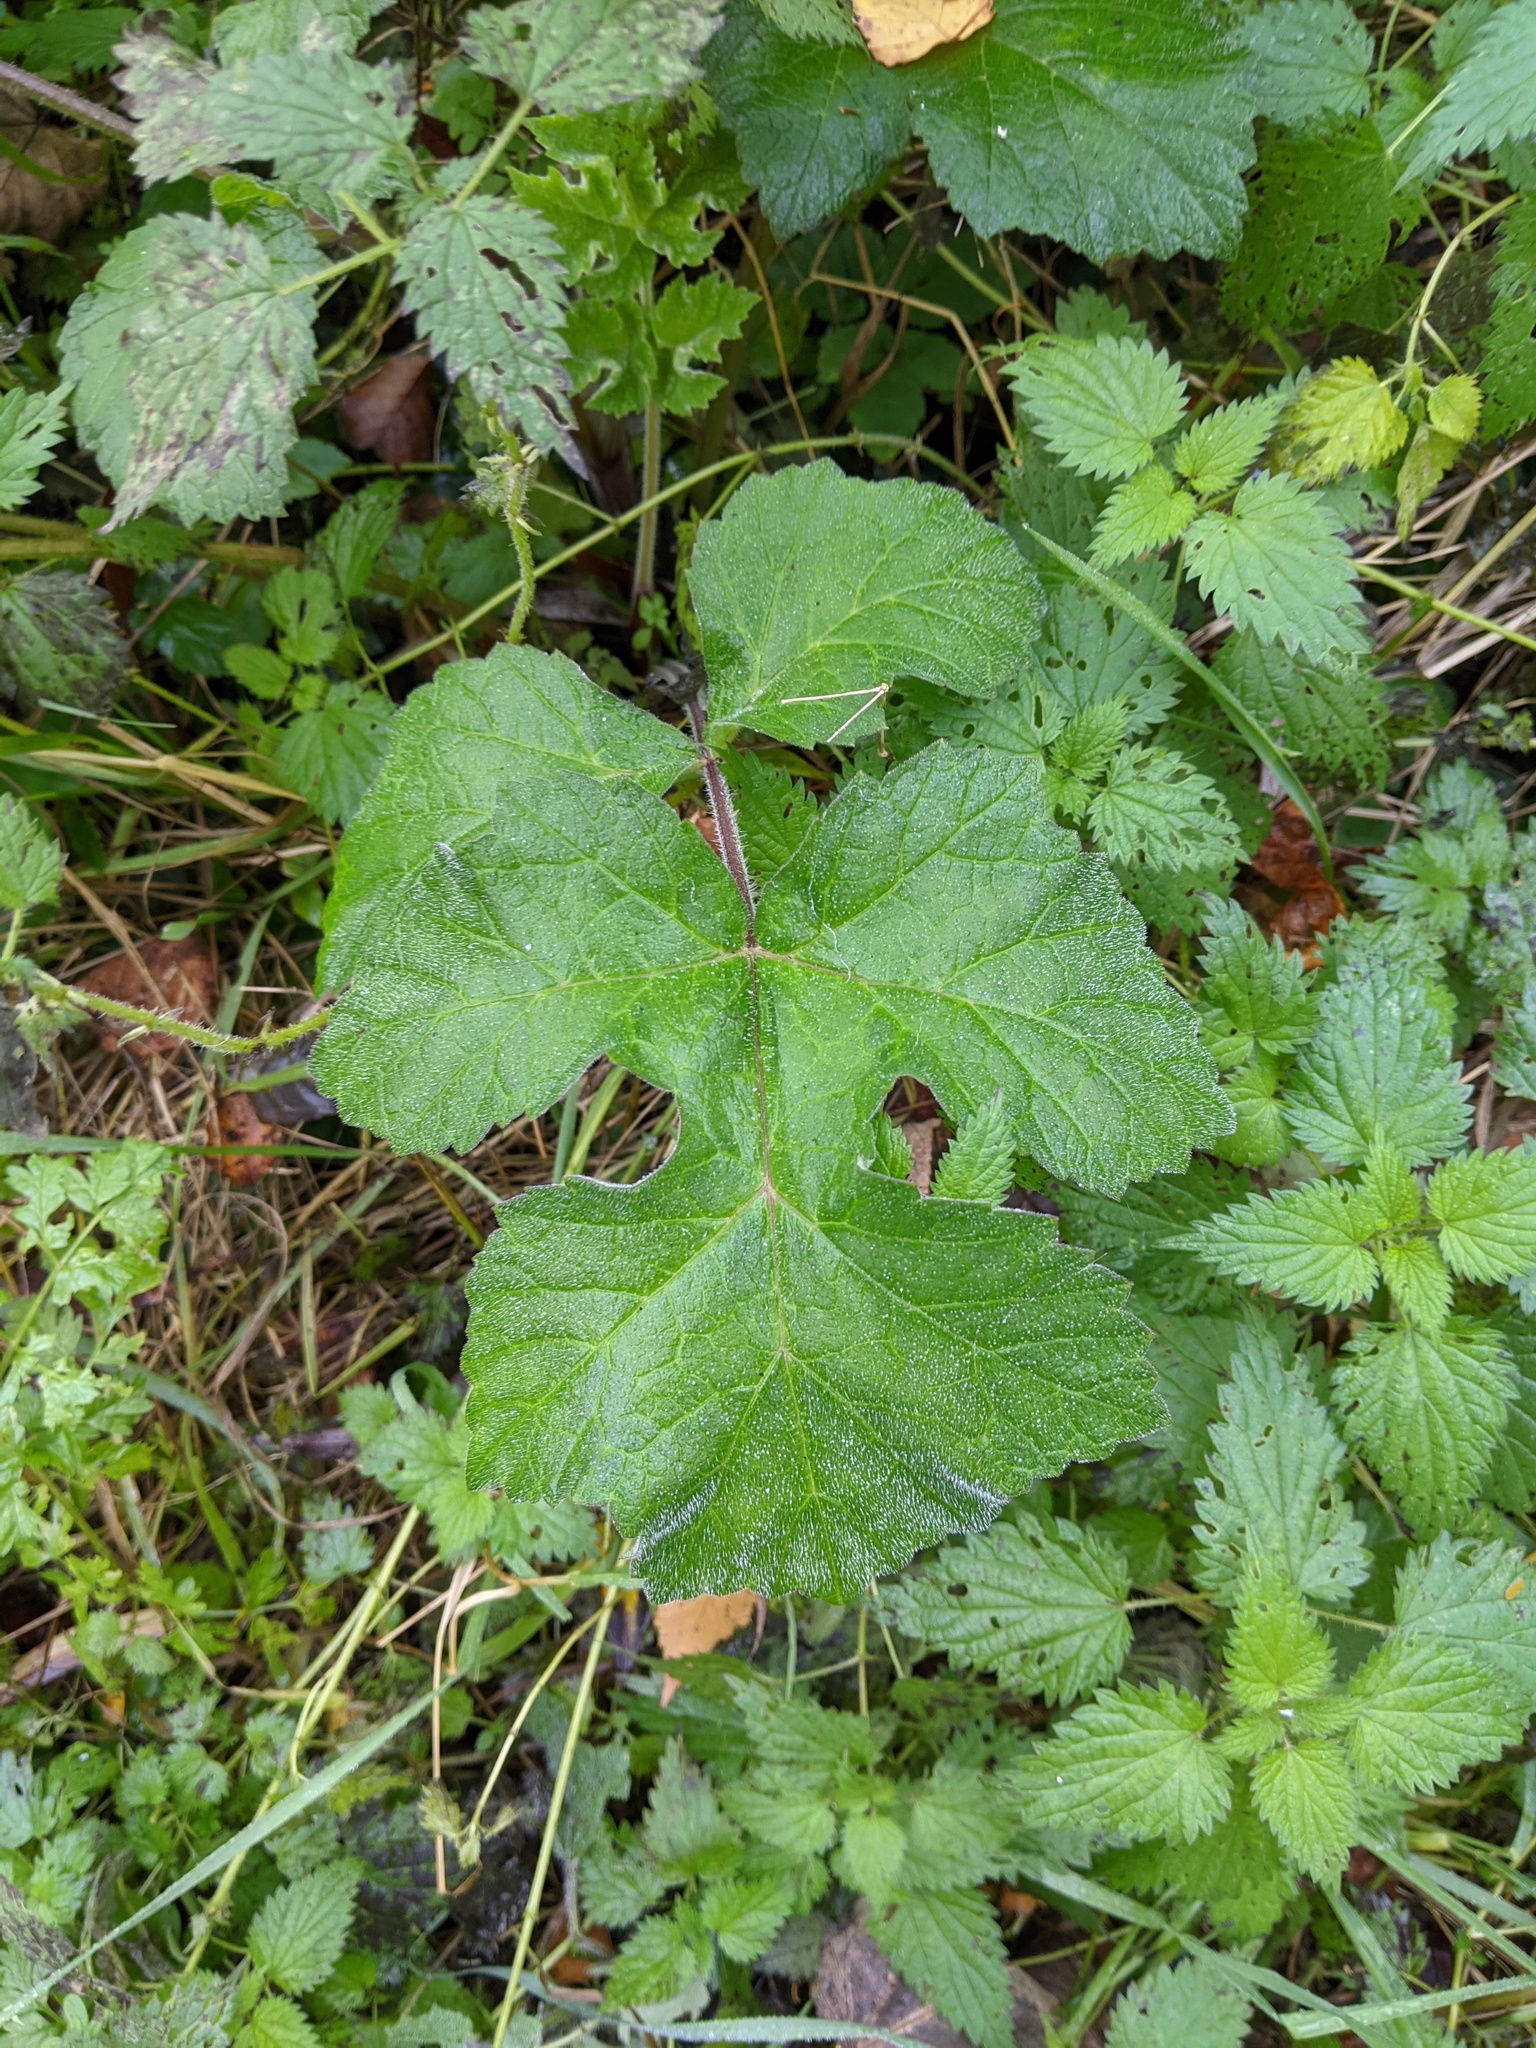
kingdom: Plantae
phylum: Tracheophyta
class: Magnoliopsida
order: Apiales
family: Apiaceae
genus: Heracleum
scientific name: Heracleum sphondylium
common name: Hogweed
